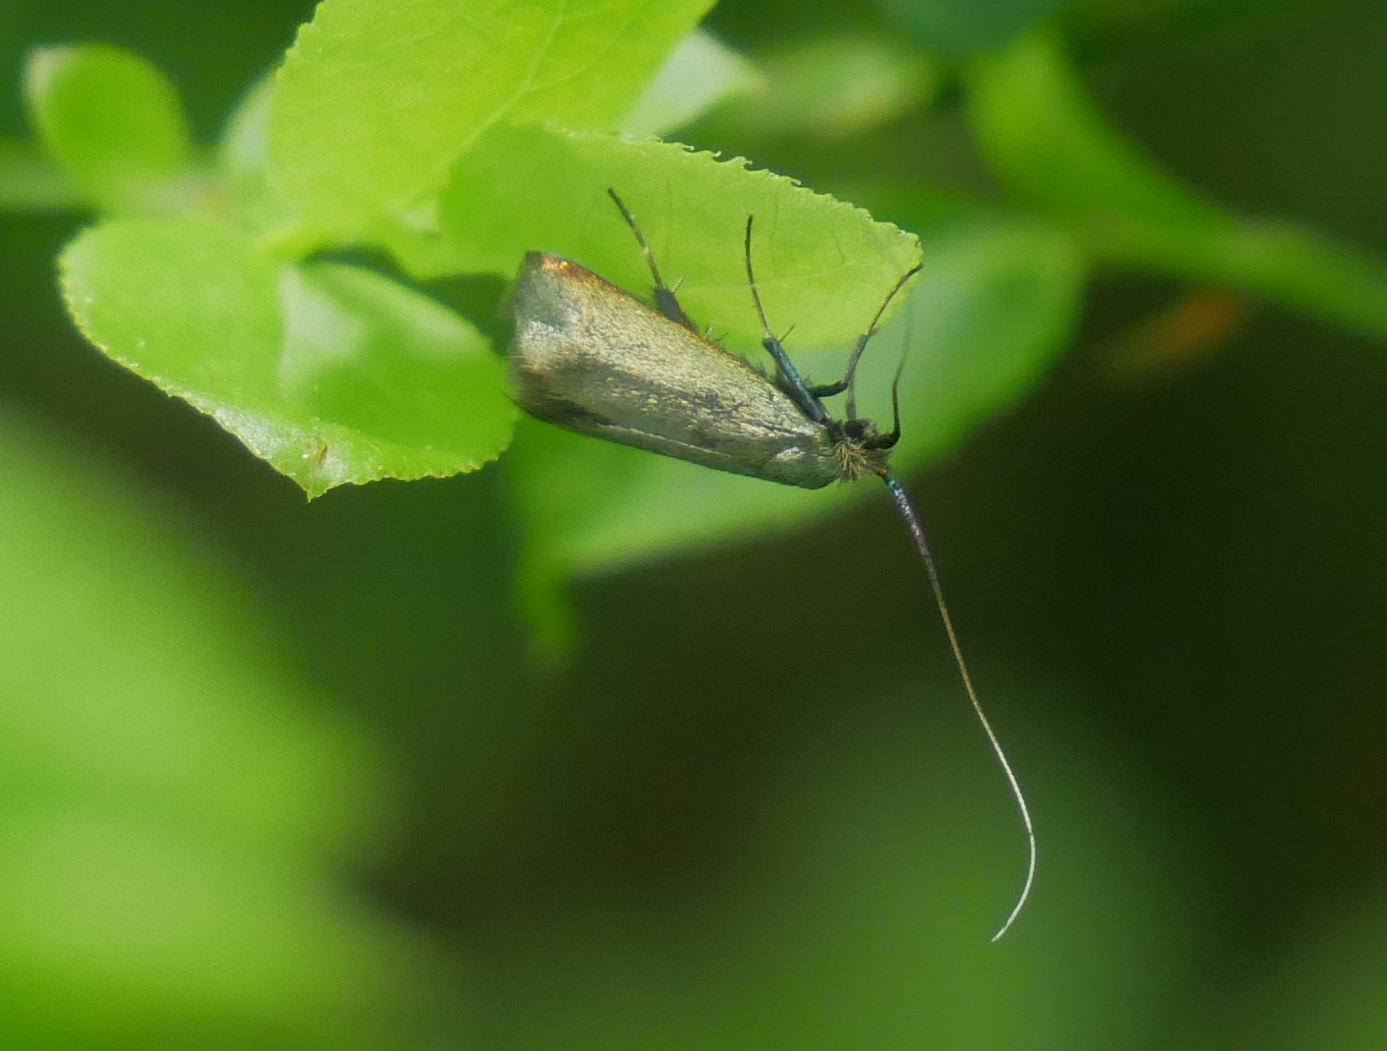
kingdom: Animalia
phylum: Arthropoda
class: Insecta
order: Lepidoptera
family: Adelidae
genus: Adela
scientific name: Adela viridella
